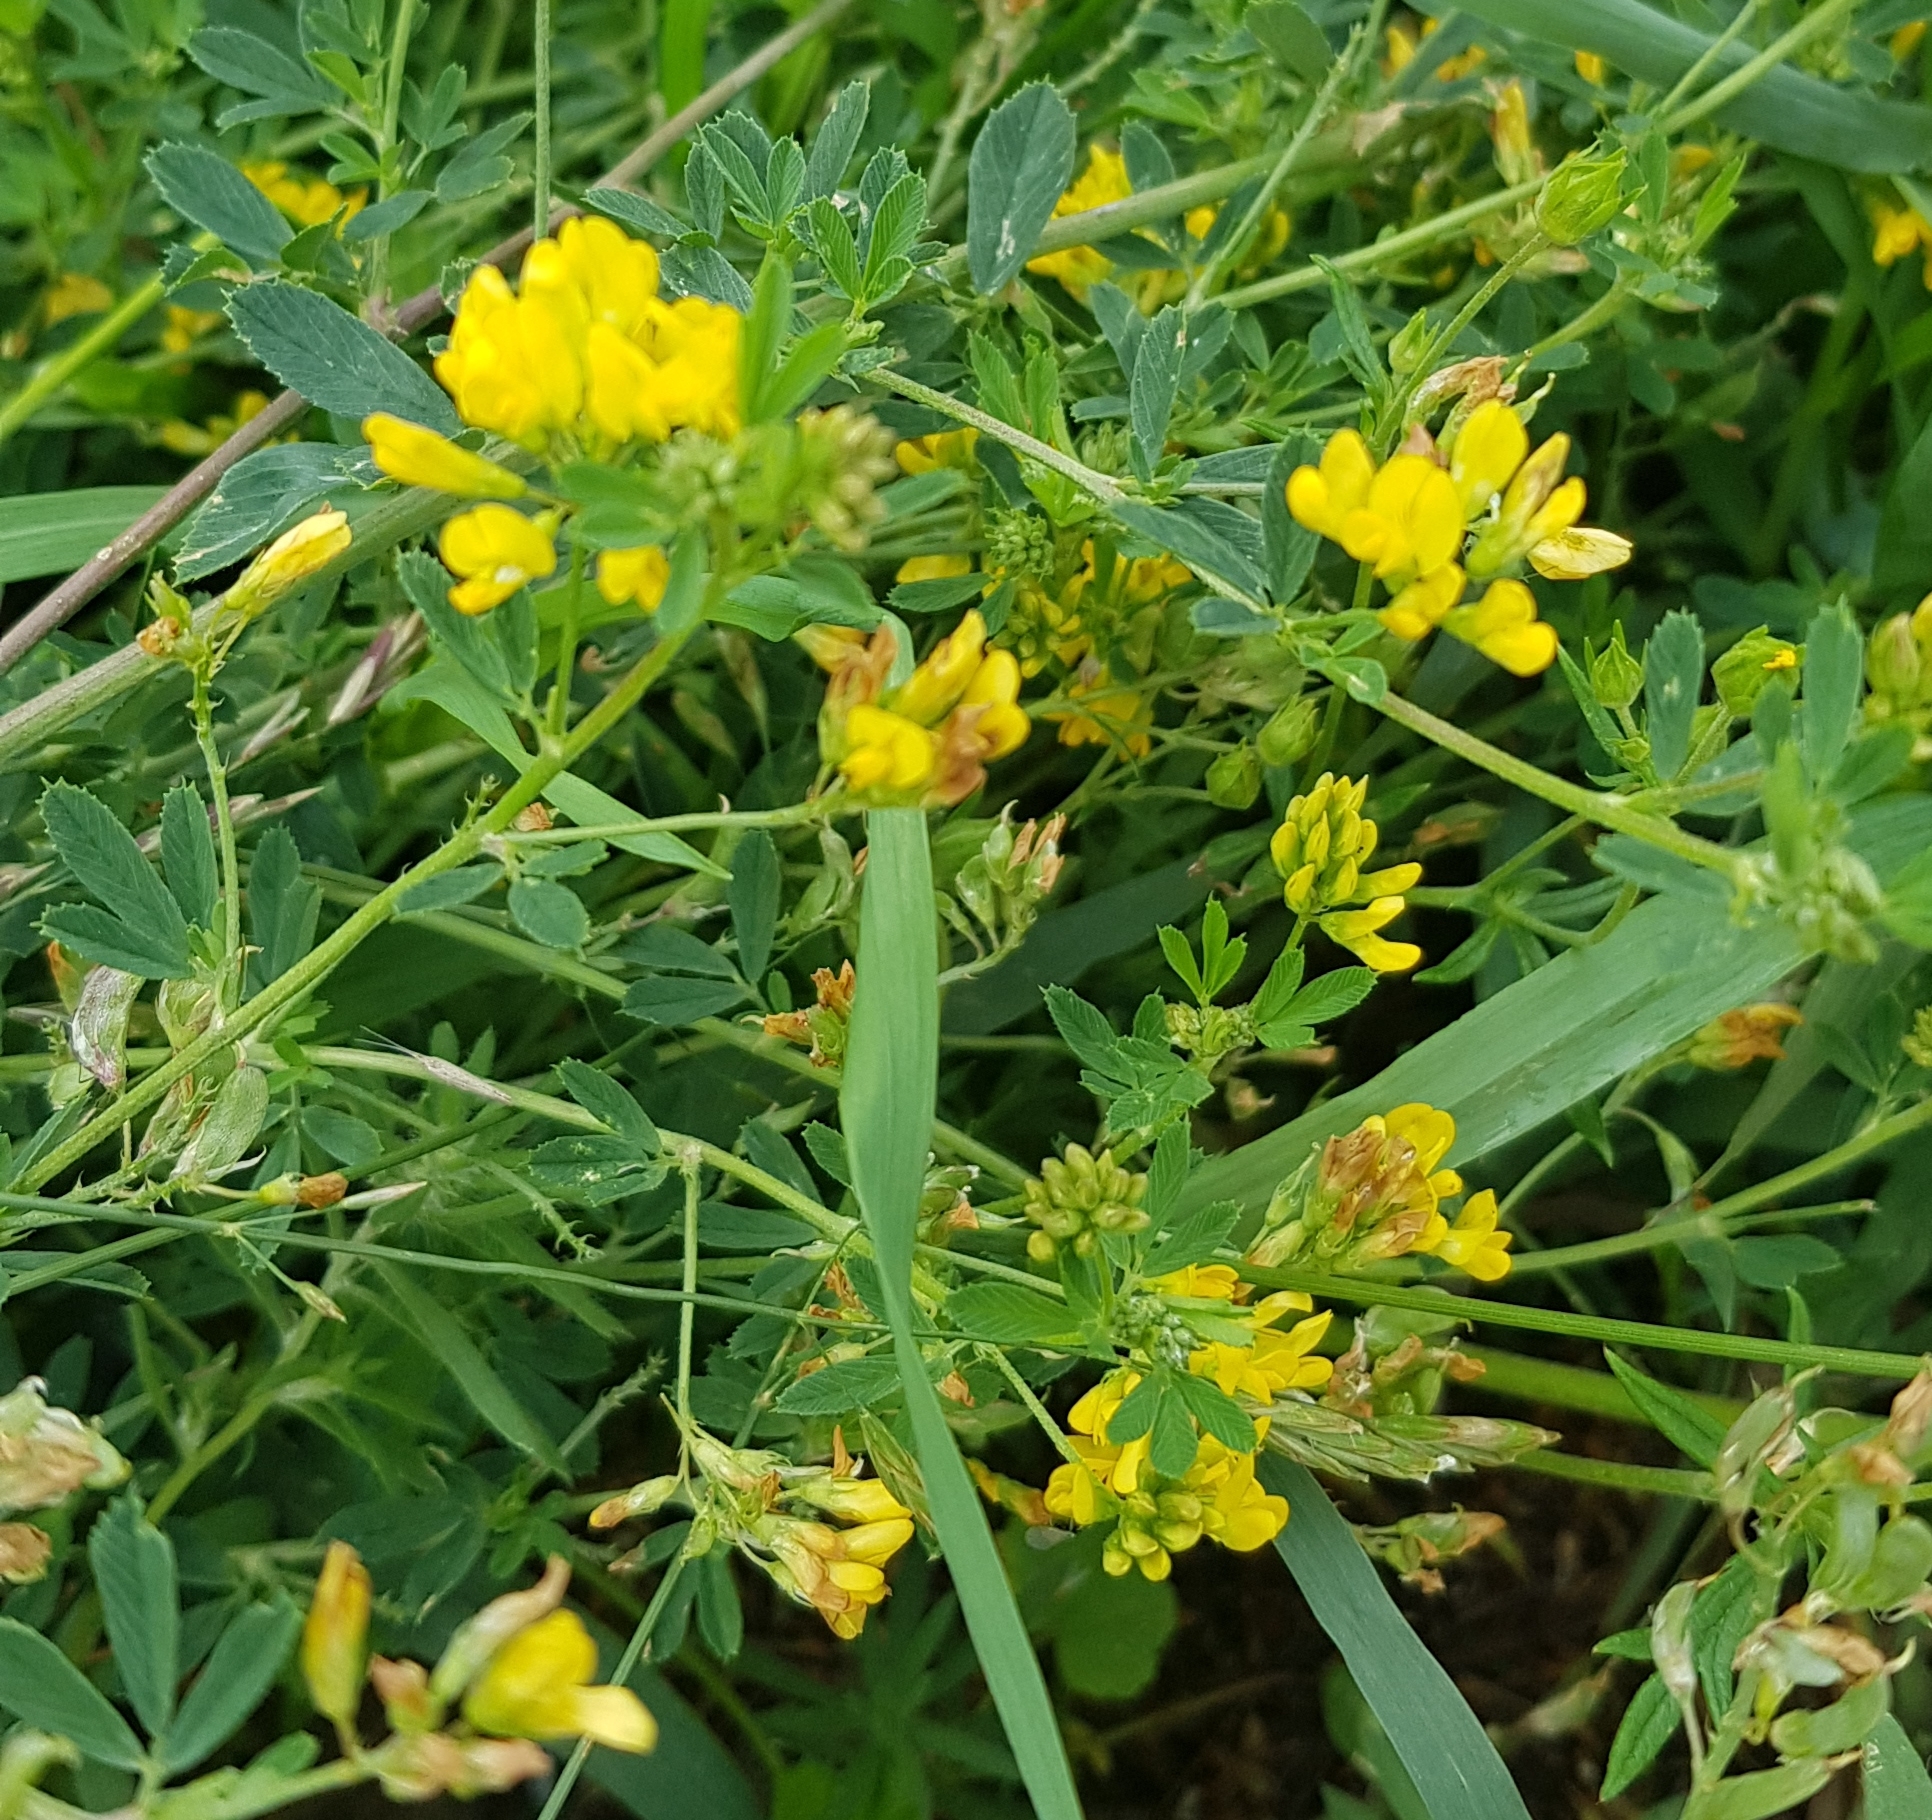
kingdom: Plantae
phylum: Tracheophyta
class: Magnoliopsida
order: Fabales
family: Fabaceae
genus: Medicago
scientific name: Medicago falcata
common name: Sickle medick
